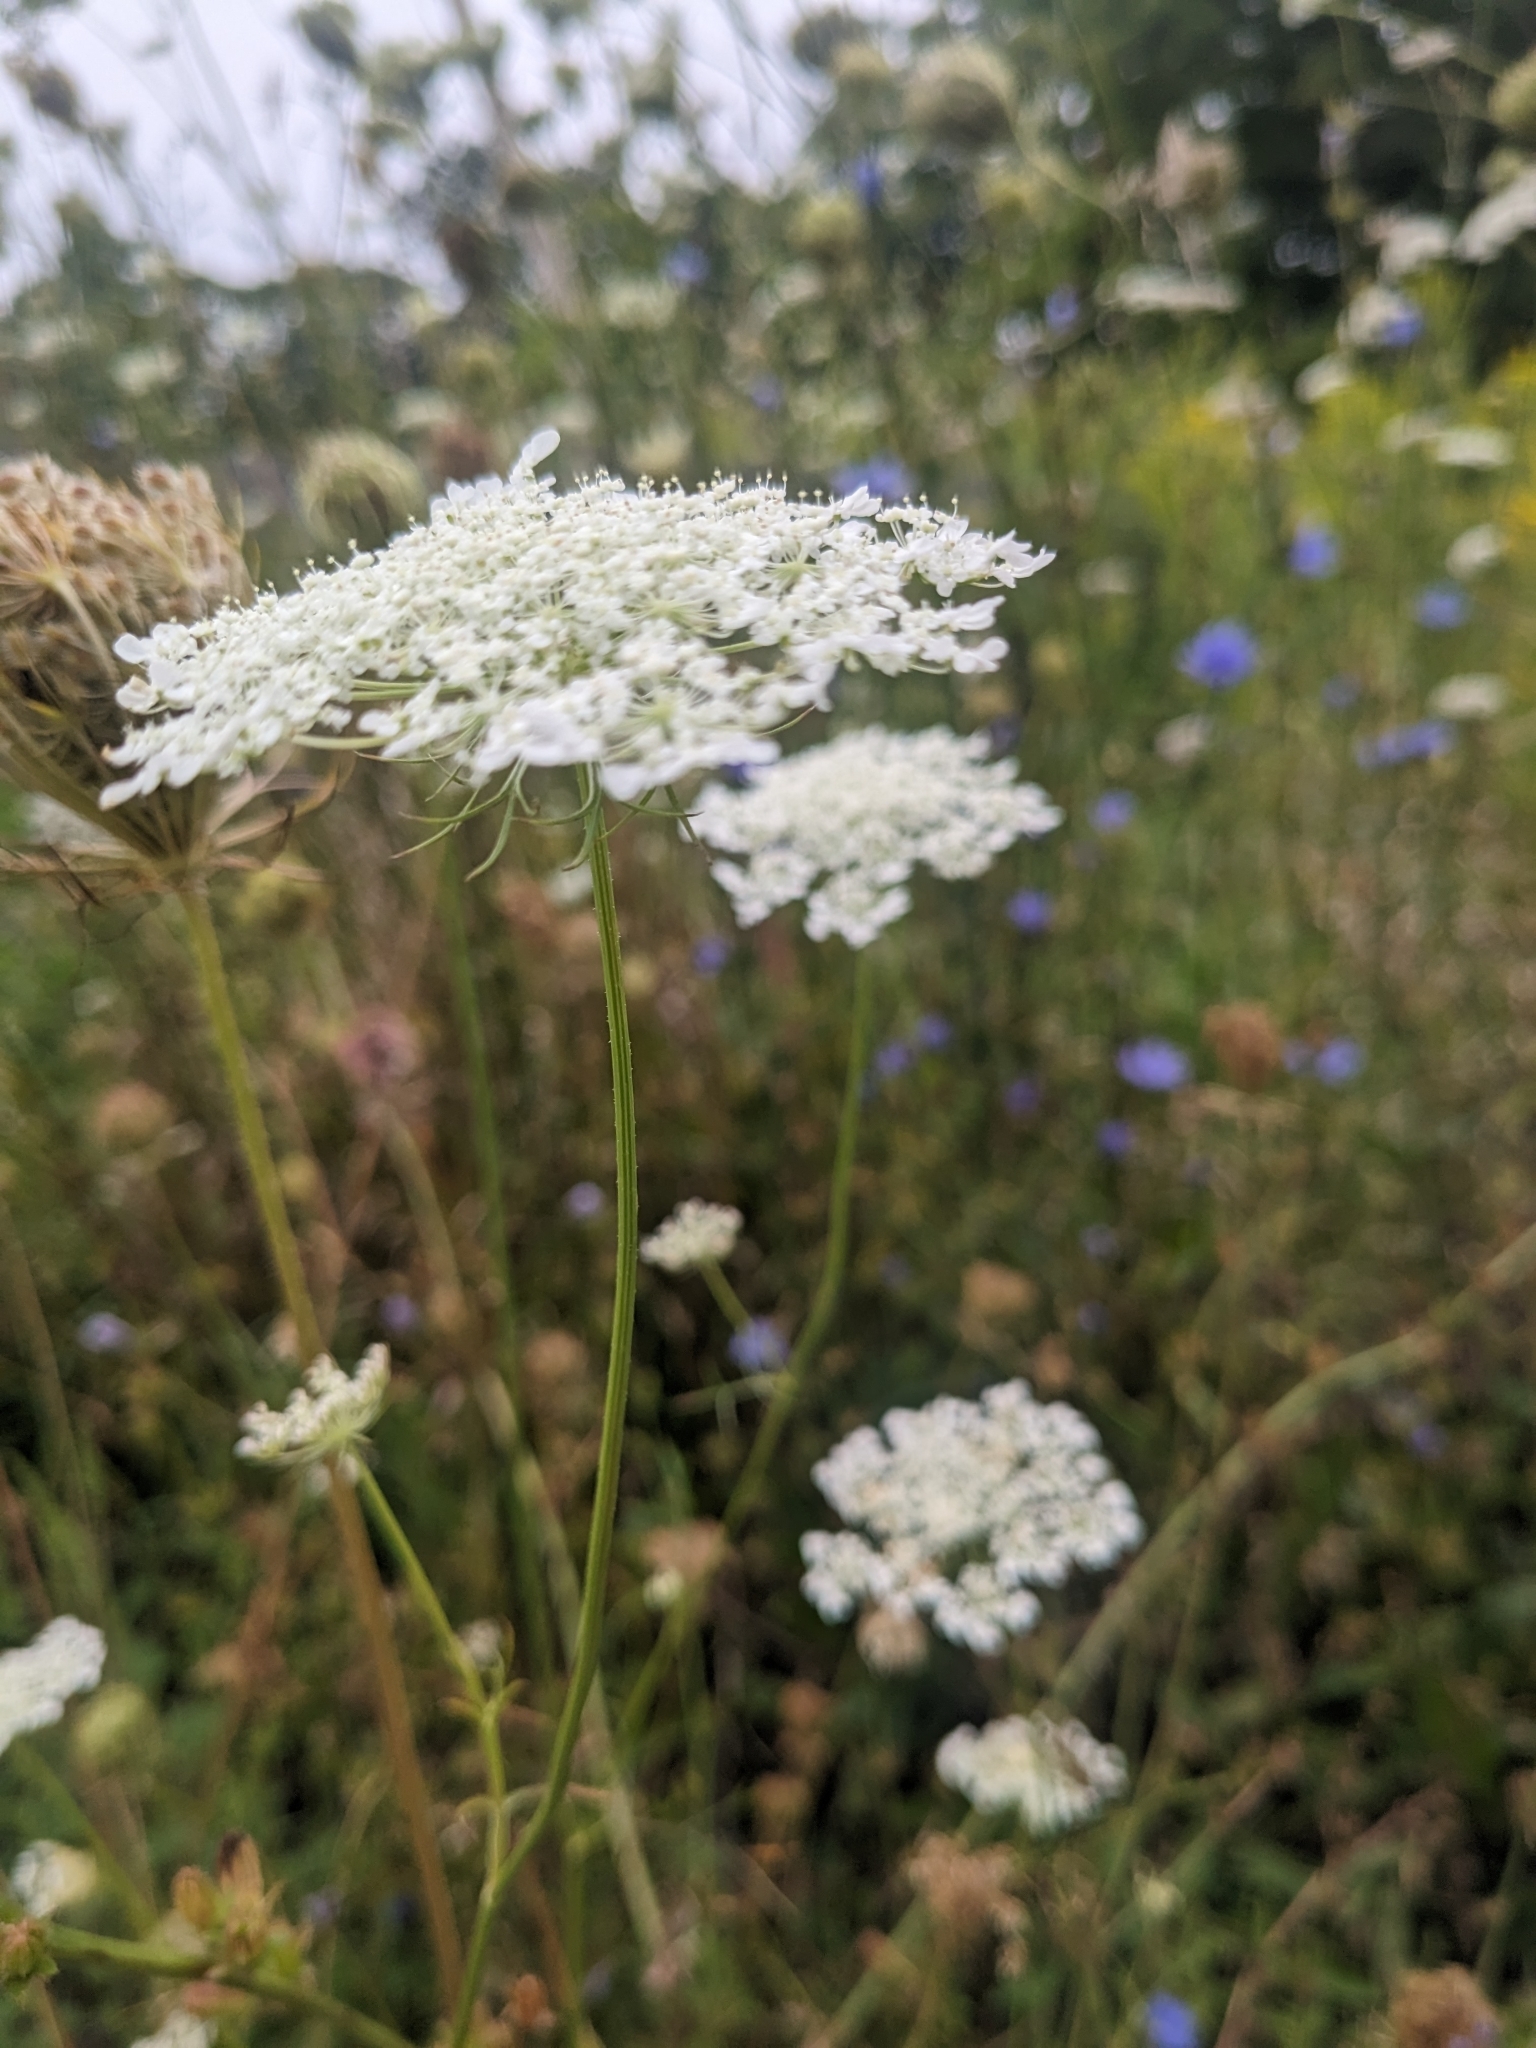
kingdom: Plantae
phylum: Tracheophyta
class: Magnoliopsida
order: Apiales
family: Apiaceae
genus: Daucus
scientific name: Daucus carota
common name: Wild carrot
